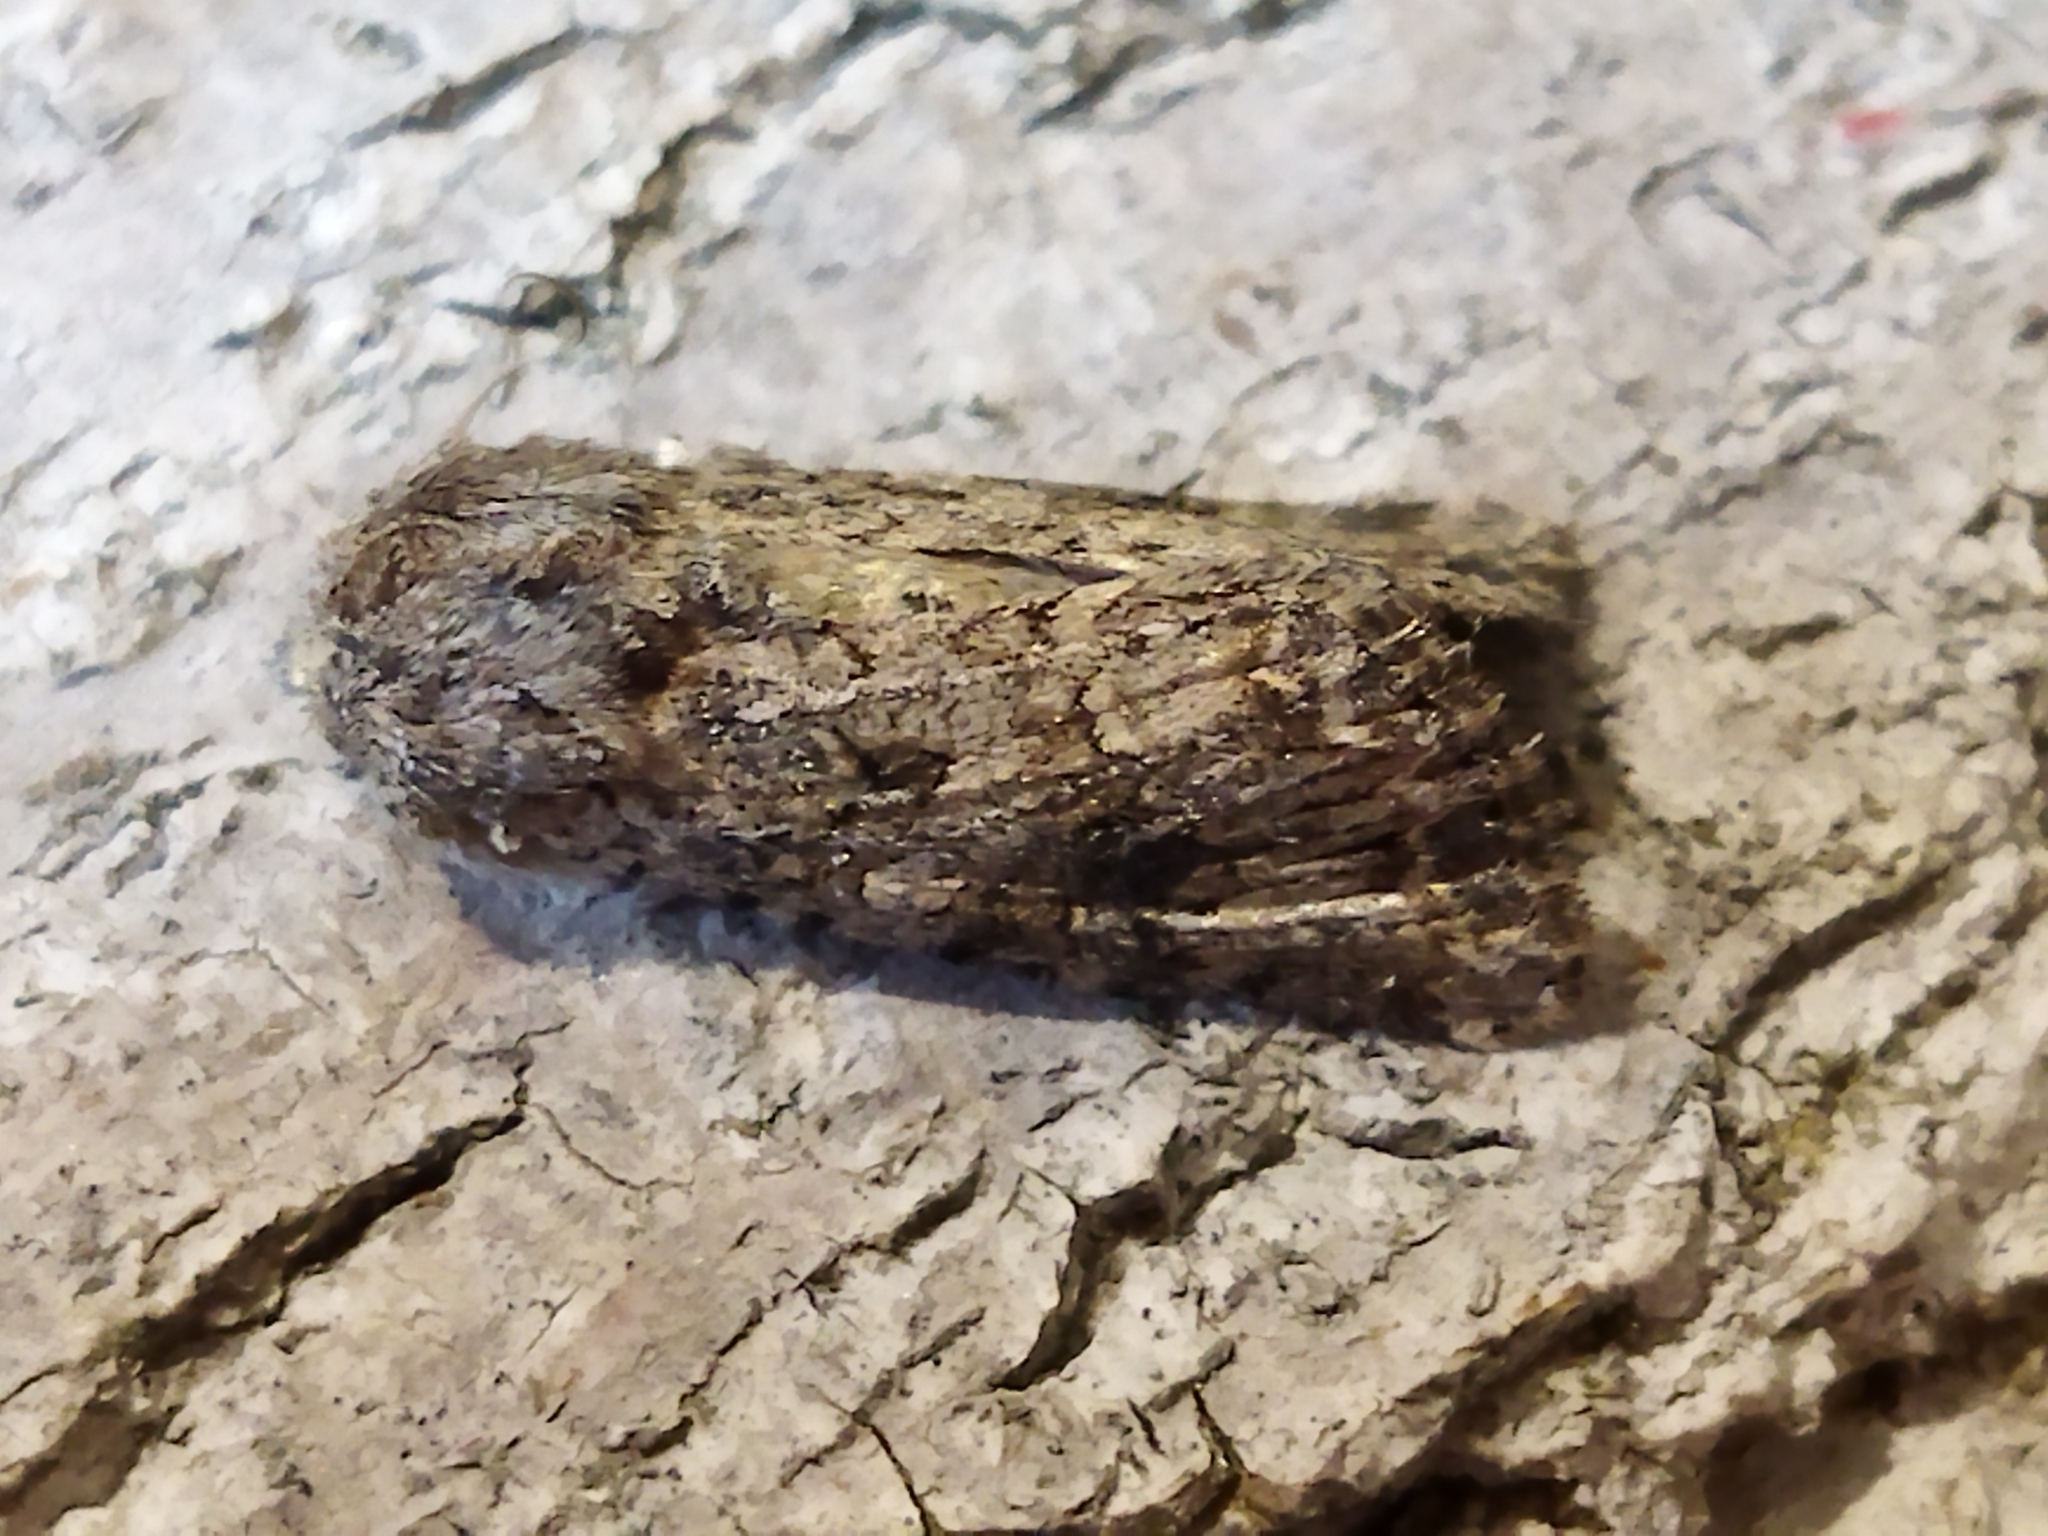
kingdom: Animalia
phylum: Arthropoda
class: Insecta
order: Lepidoptera
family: Noctuidae
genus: Anarta
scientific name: Anarta trifolii
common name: Clover cutworm moth
